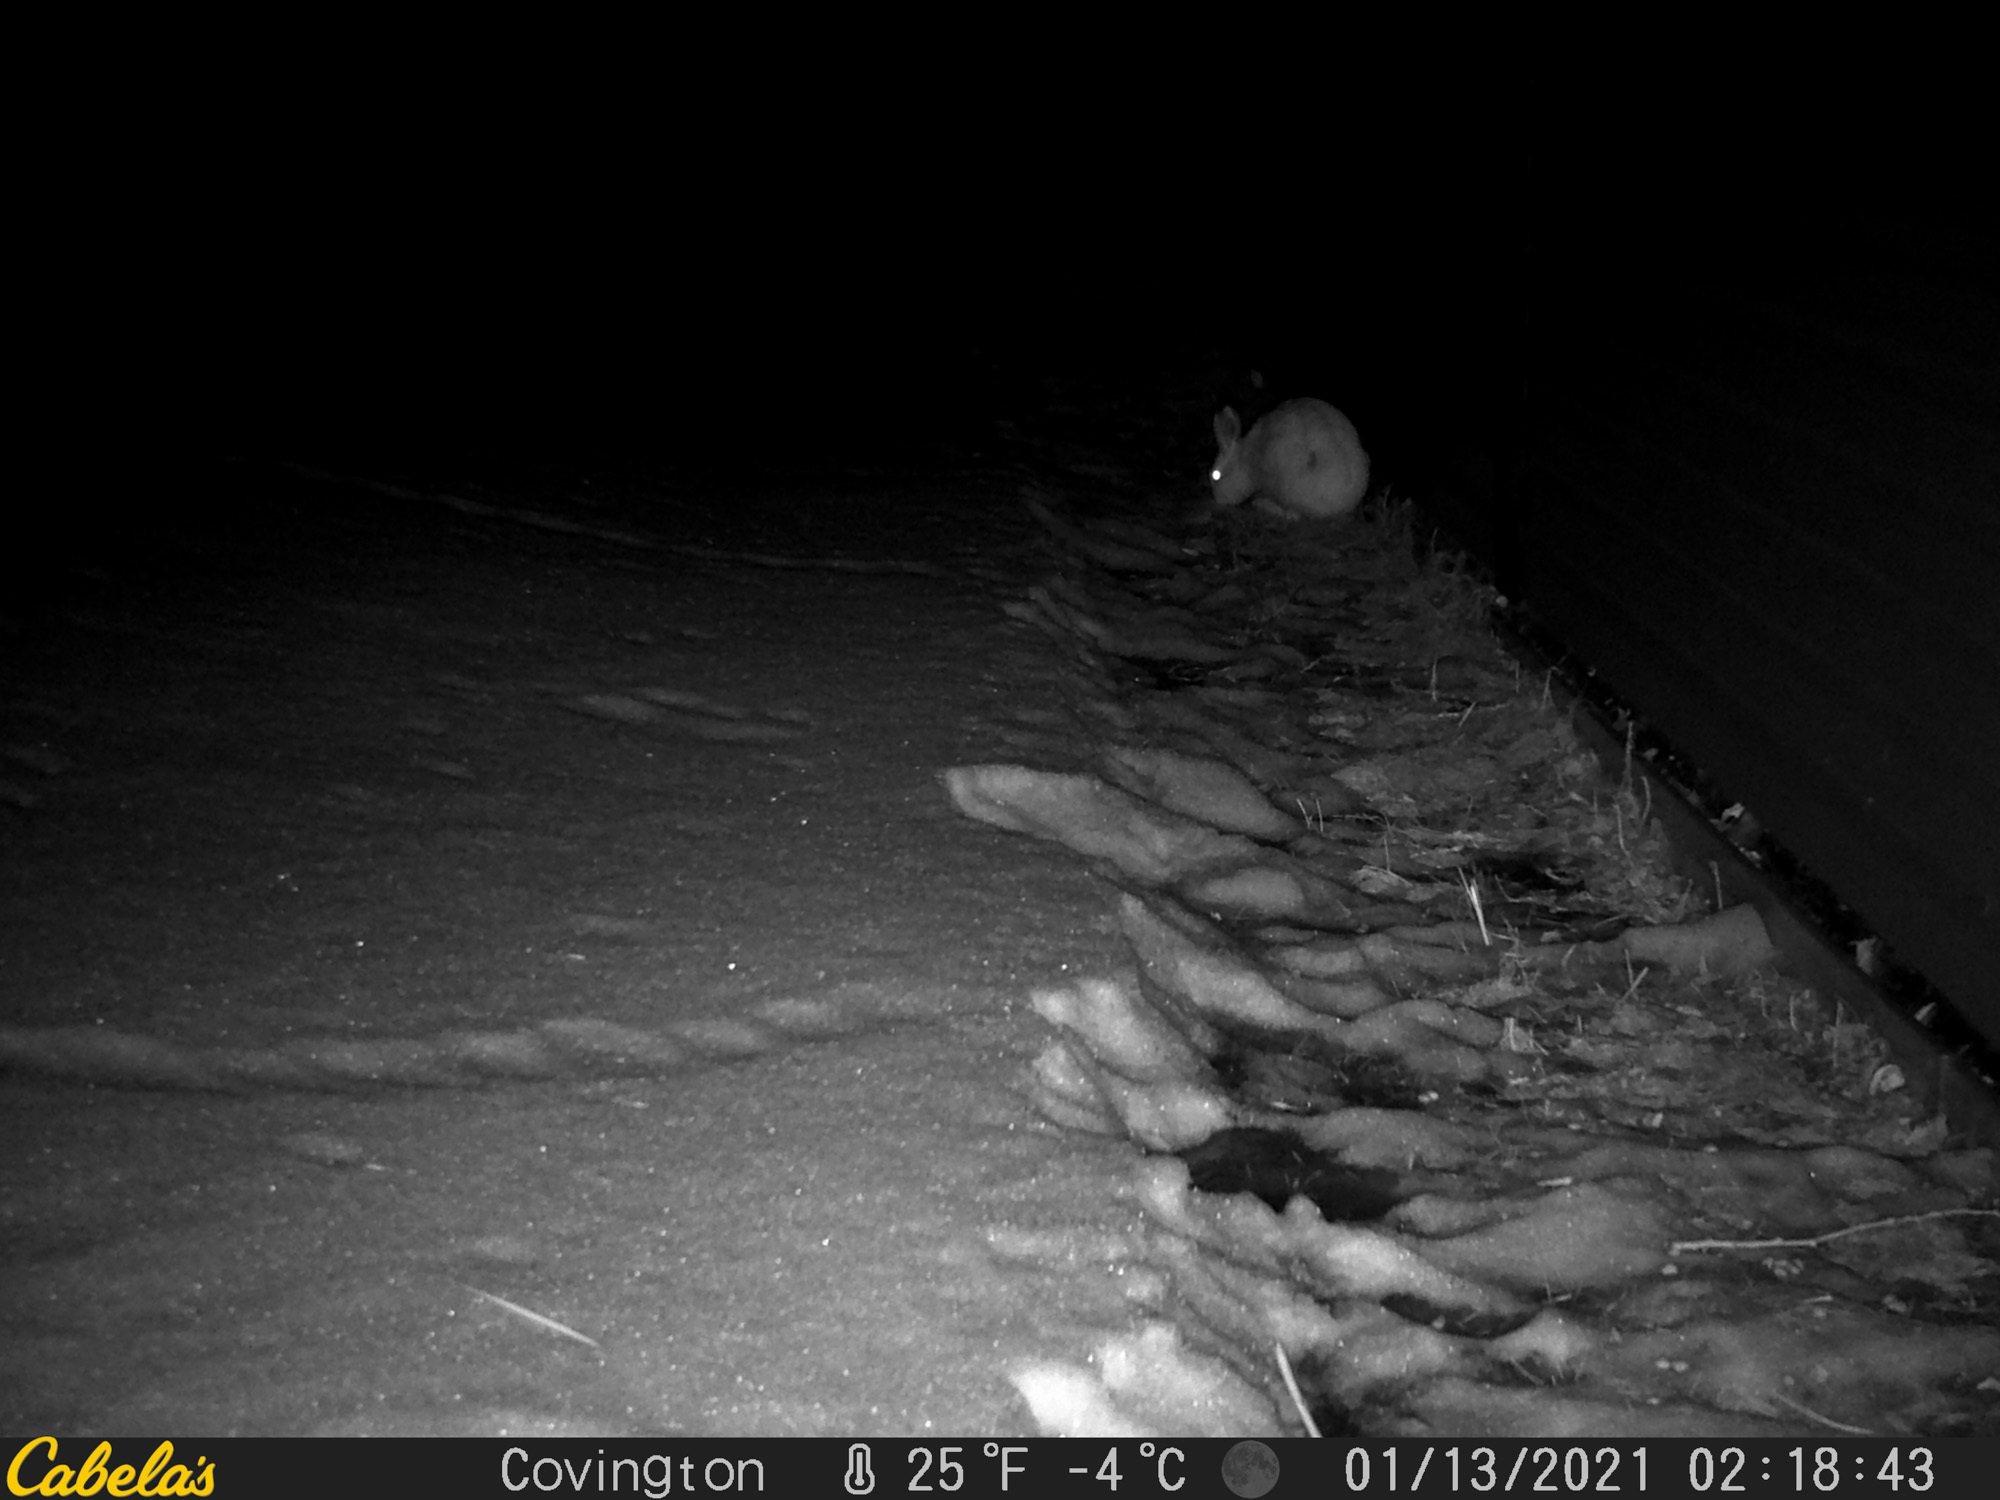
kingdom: Animalia
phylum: Chordata
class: Mammalia
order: Lagomorpha
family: Leporidae
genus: Lepus
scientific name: Lepus townsendii
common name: White-tailed jackrabbit
